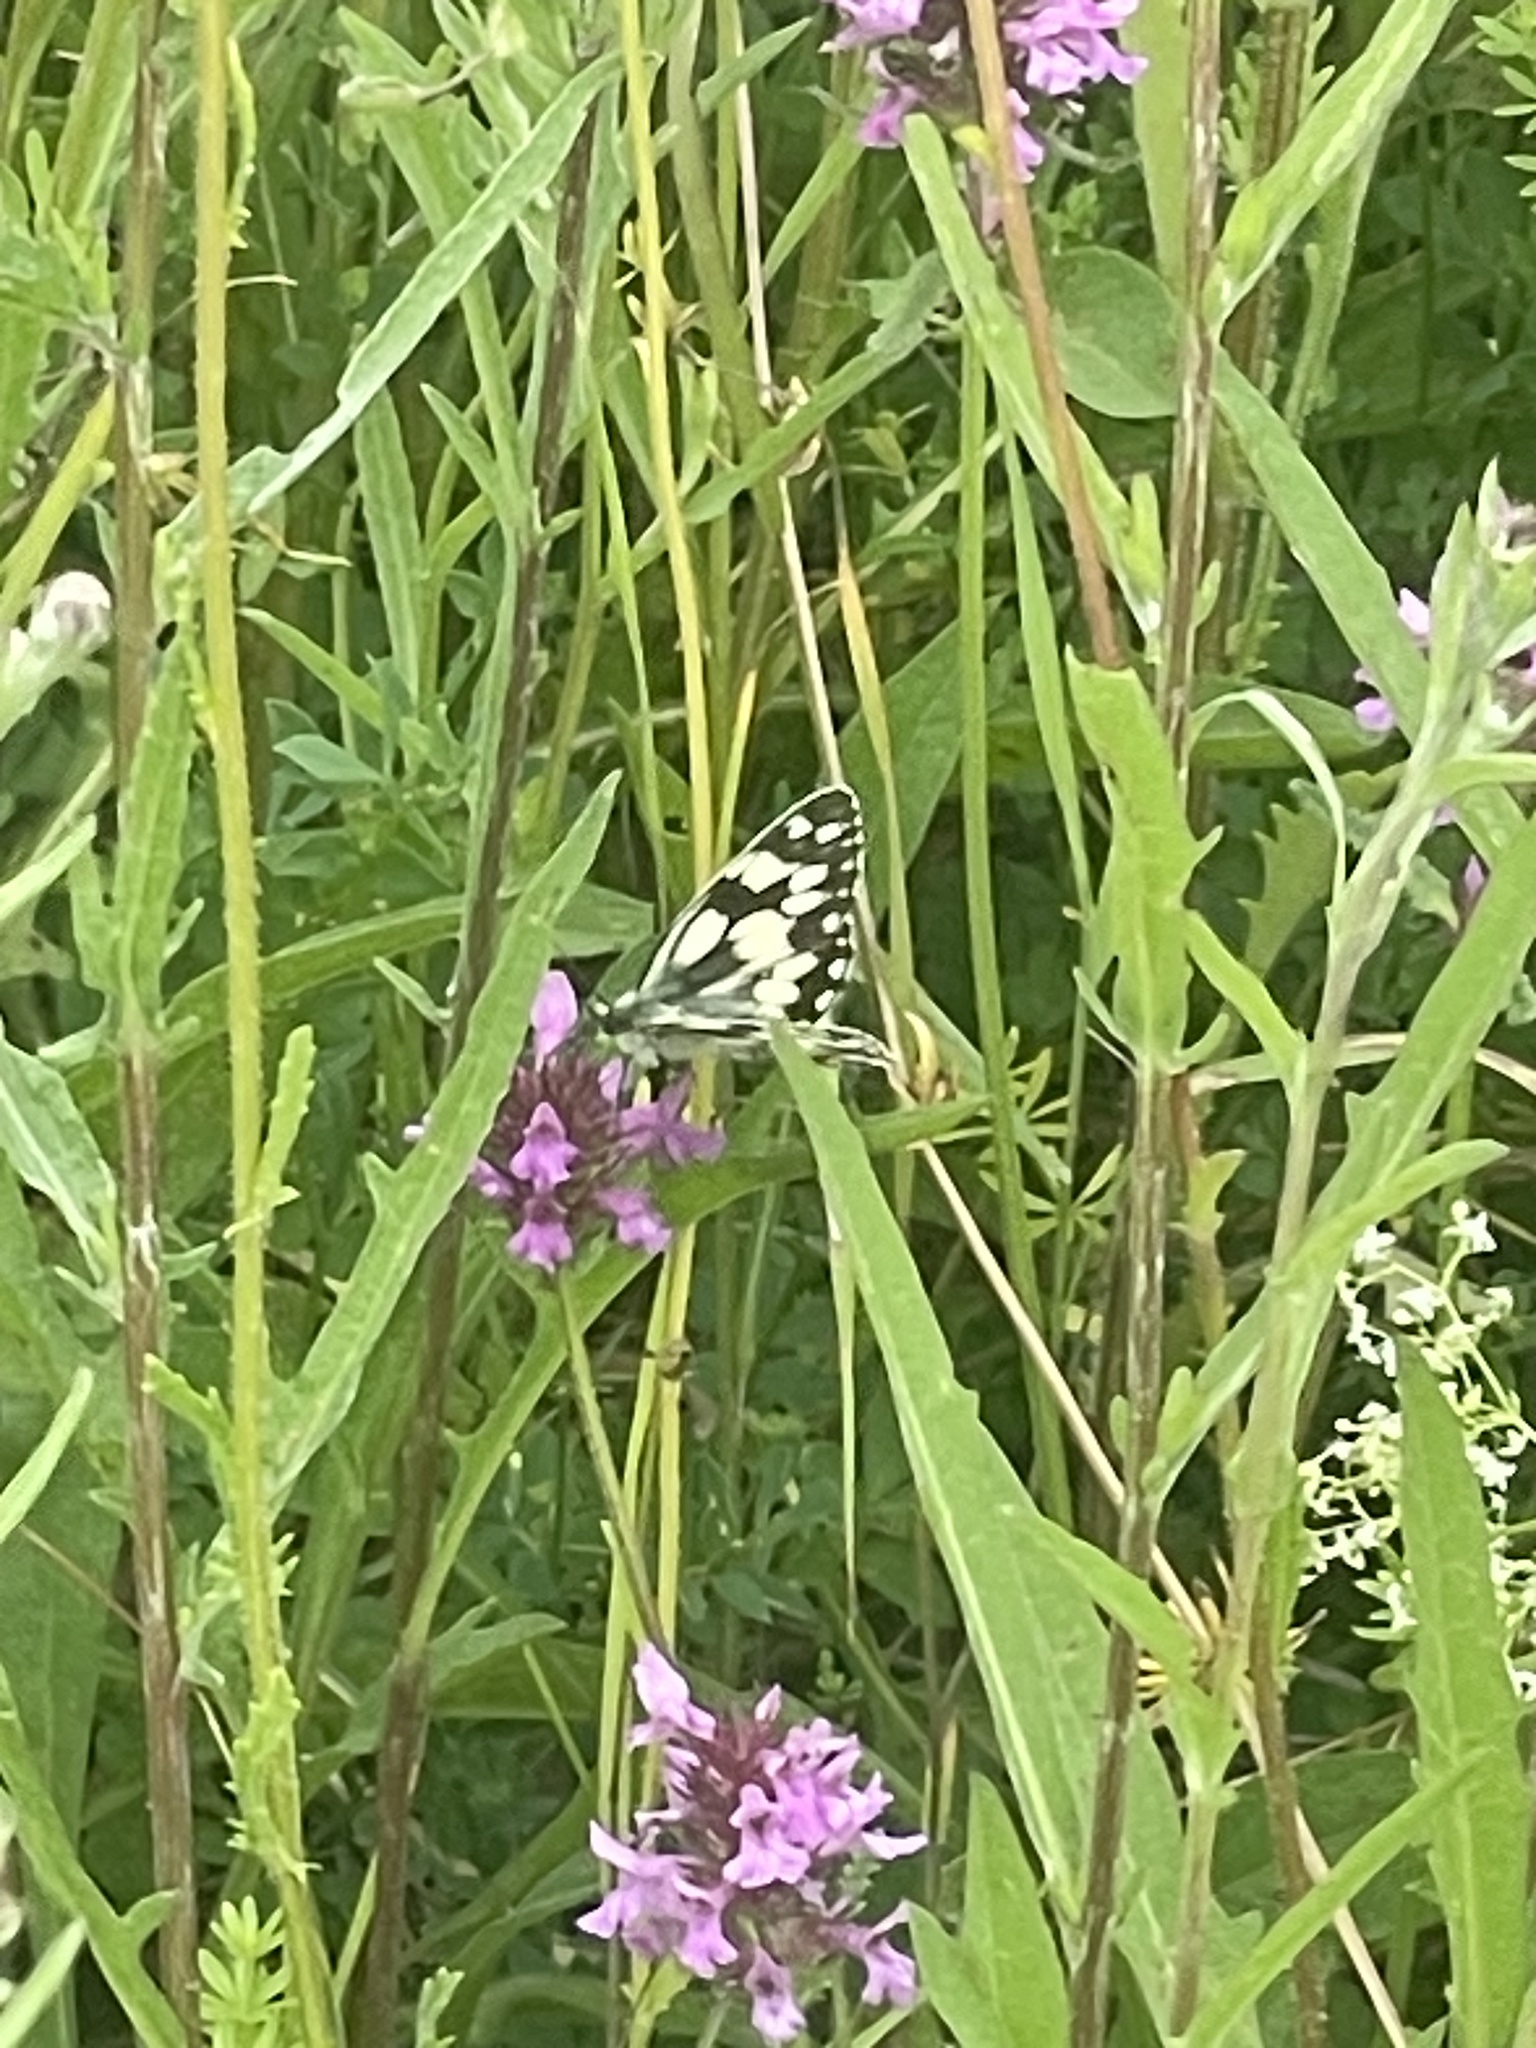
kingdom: Animalia
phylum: Arthropoda
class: Insecta
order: Lepidoptera
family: Nymphalidae
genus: Melanargia
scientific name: Melanargia galathea
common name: Marbled white
